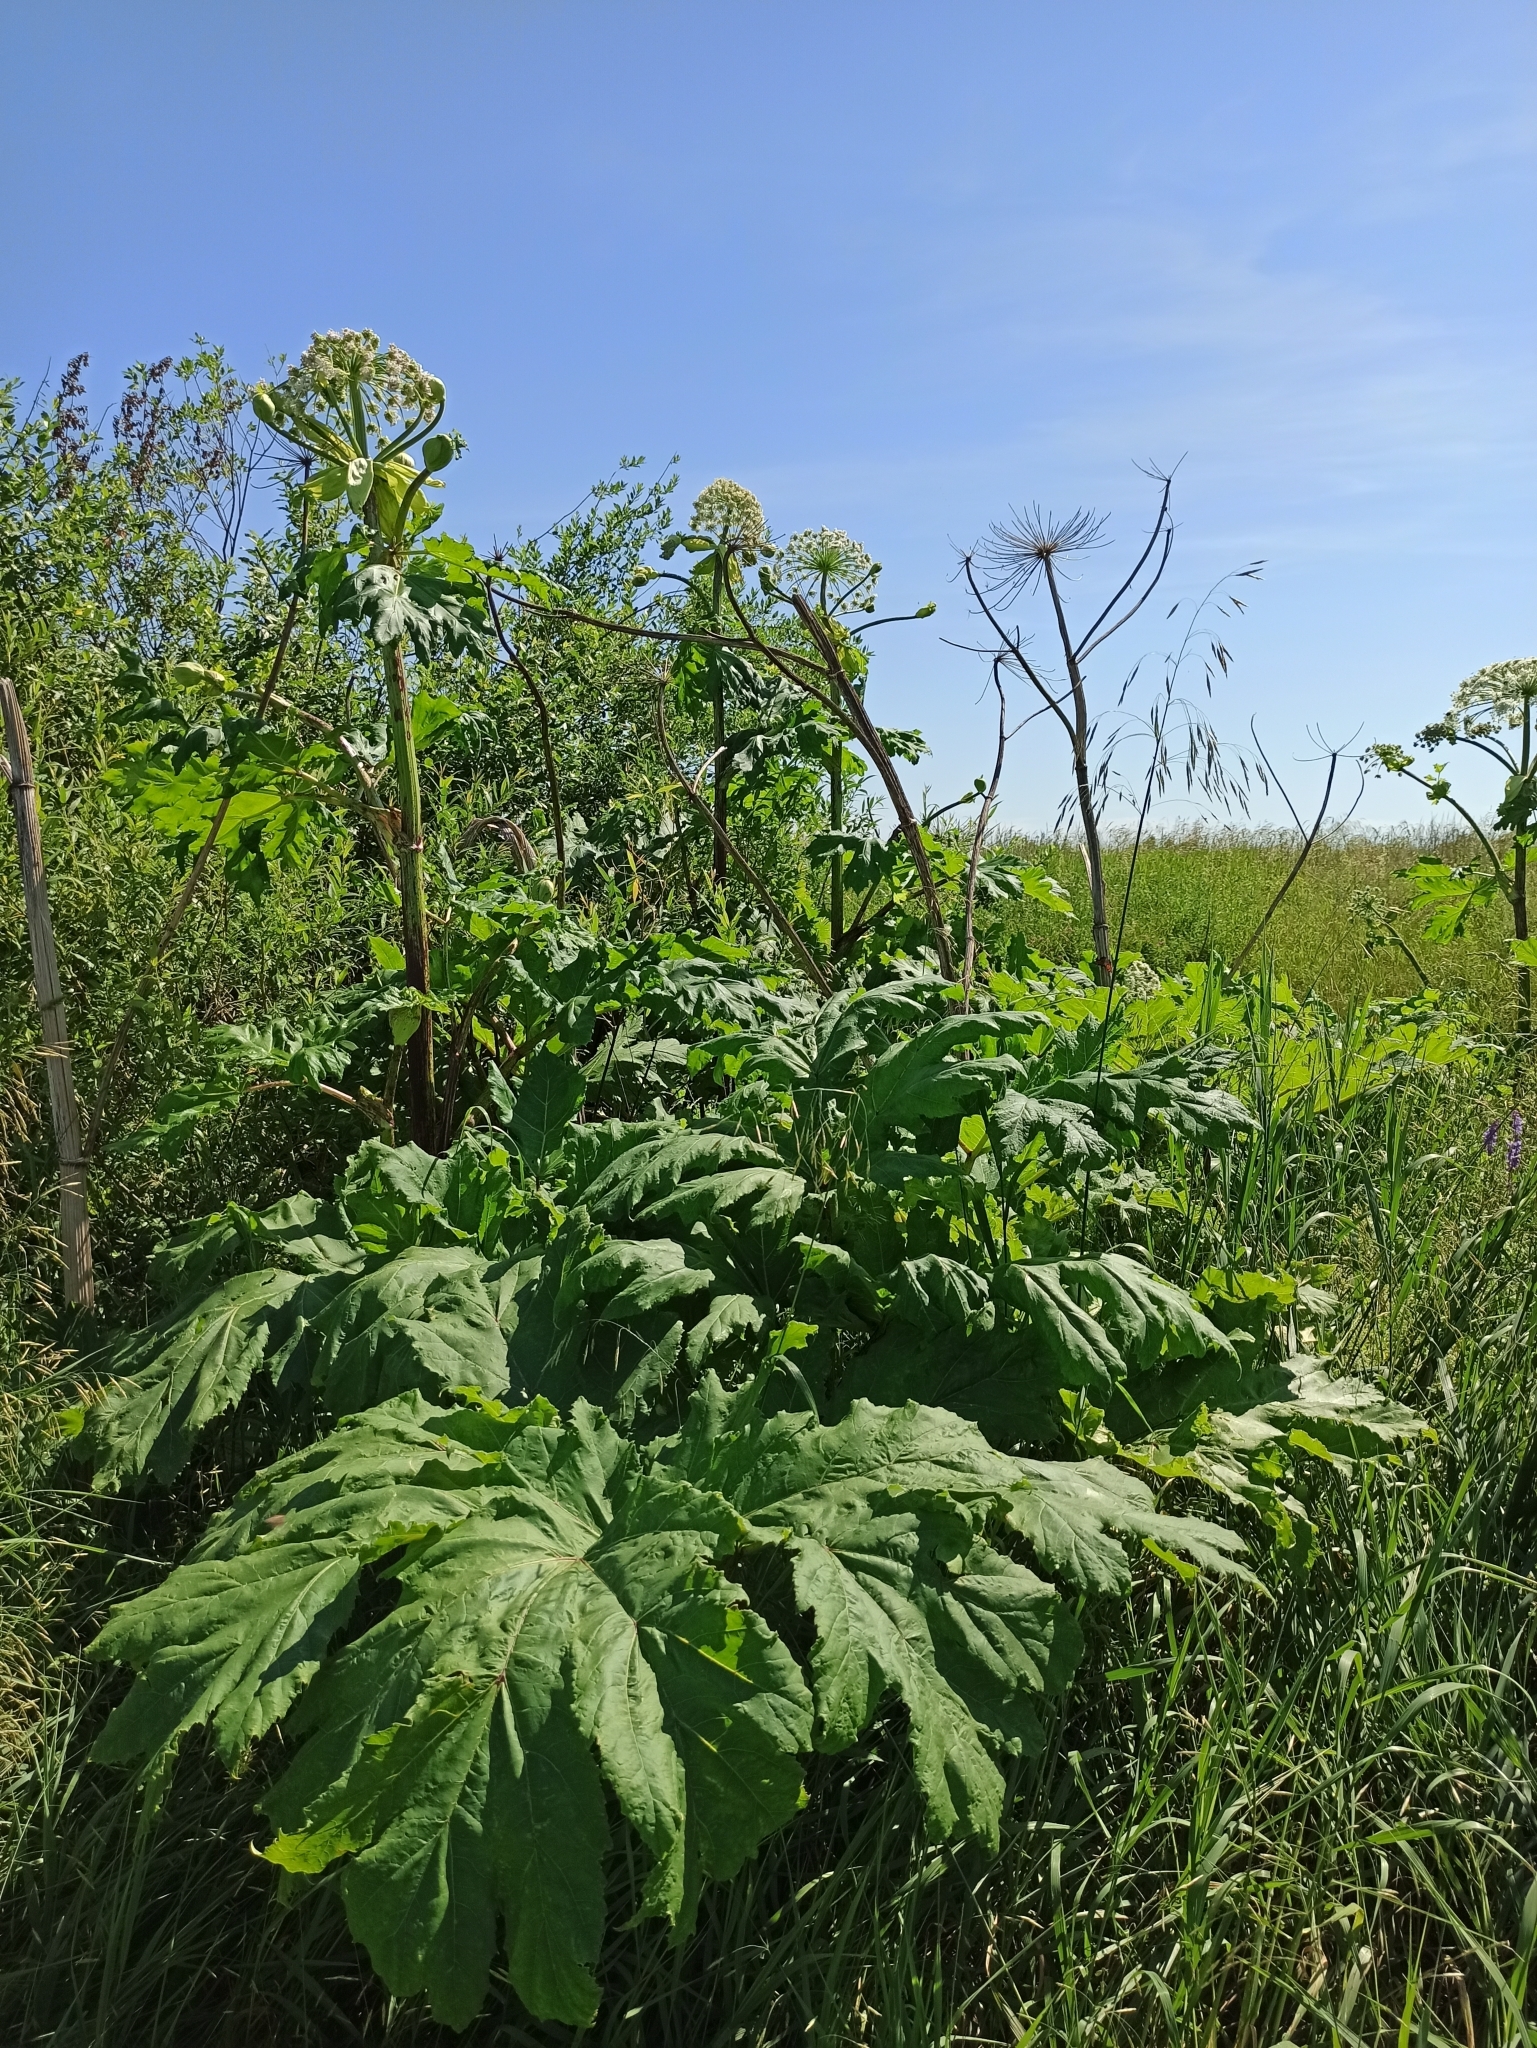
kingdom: Plantae
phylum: Tracheophyta
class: Magnoliopsida
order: Apiales
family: Apiaceae
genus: Heracleum
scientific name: Heracleum sosnowskyi
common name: Sosnowsky's hogweed
